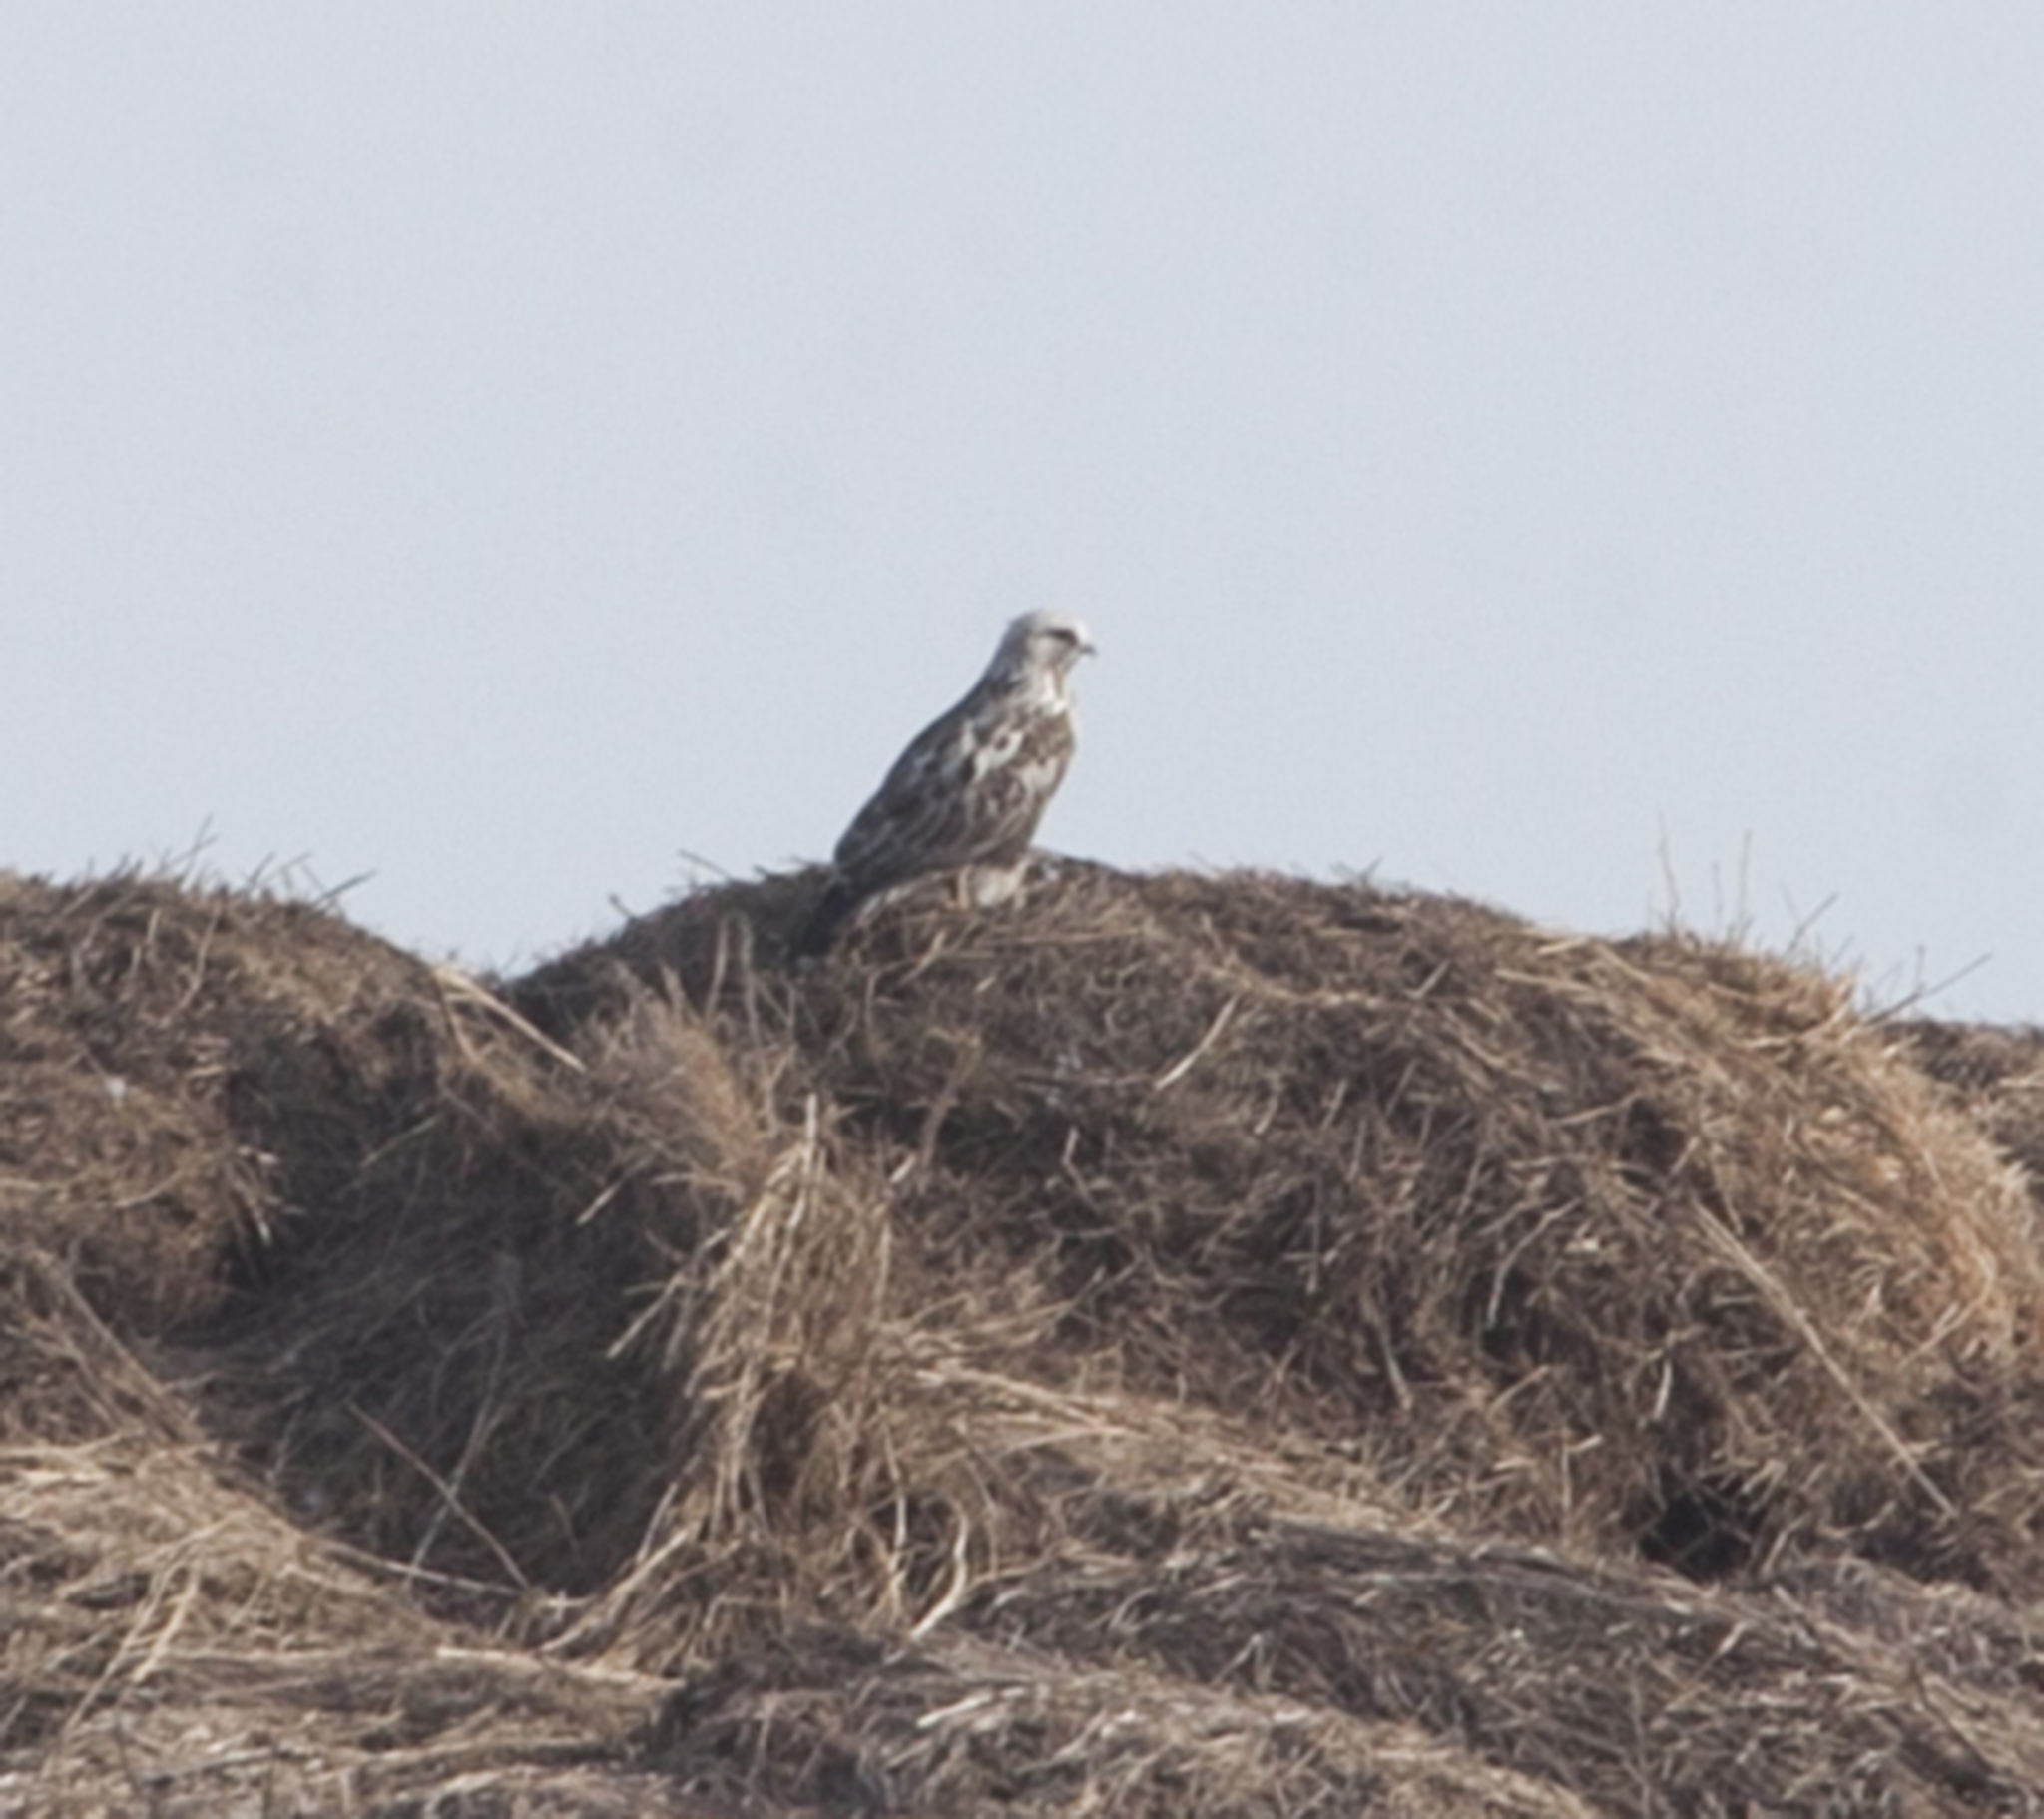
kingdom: Animalia
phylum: Chordata
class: Aves
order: Accipitriformes
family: Accipitridae
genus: Buteo
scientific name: Buteo lagopus
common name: Rough-legged buzzard
